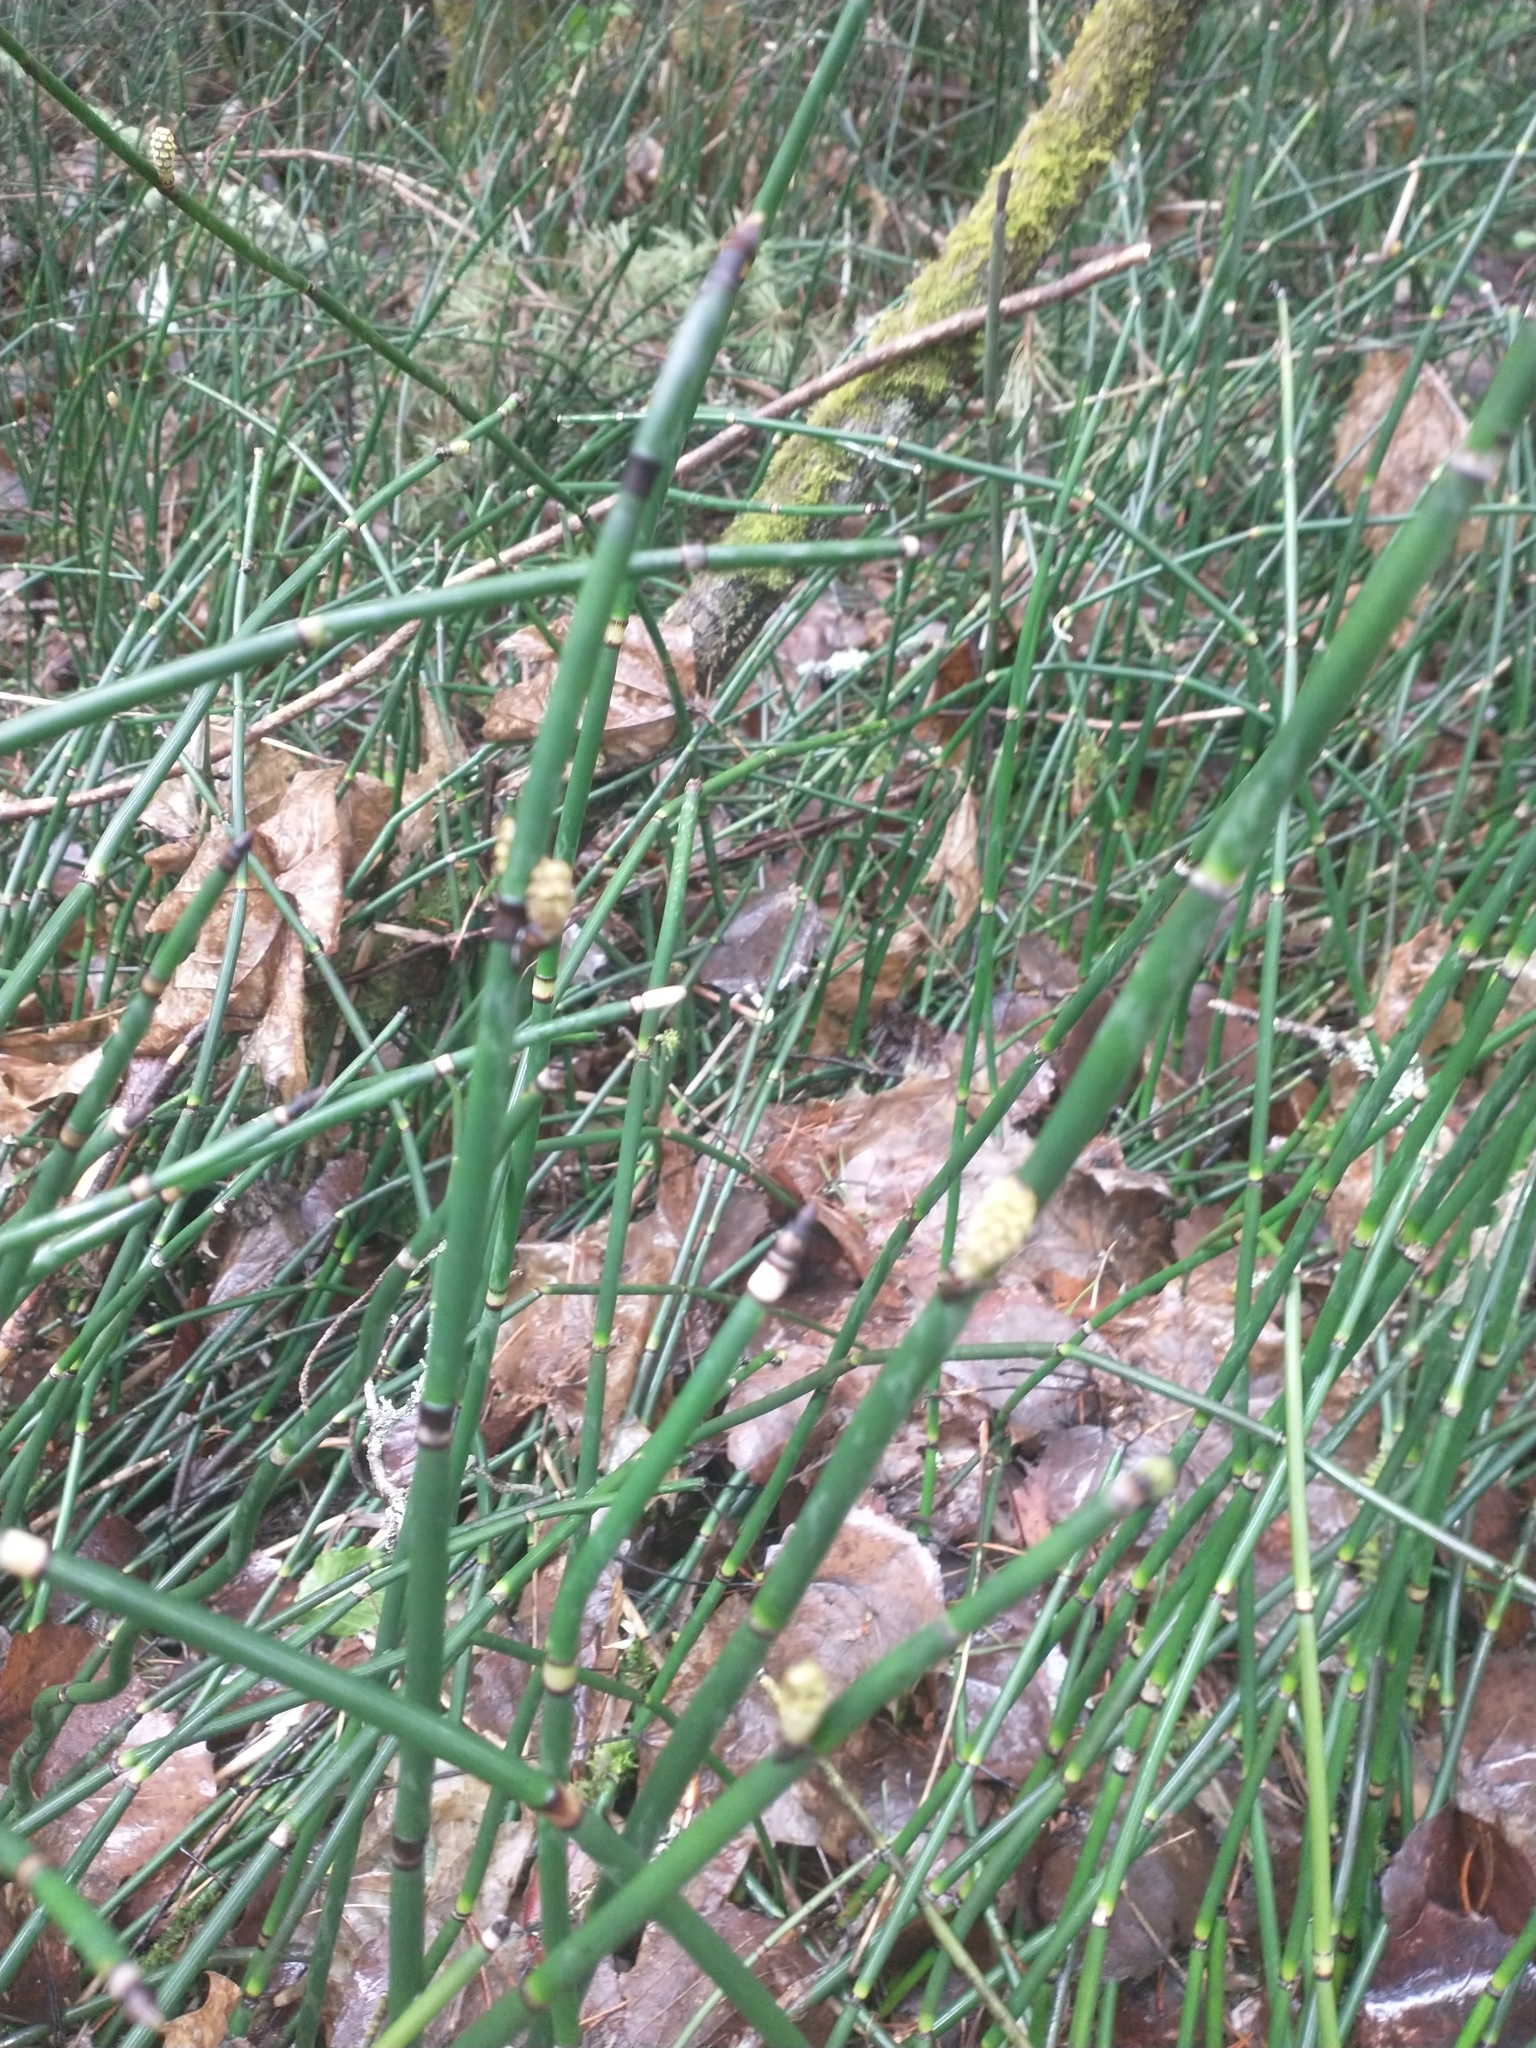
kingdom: Plantae
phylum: Tracheophyta
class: Polypodiopsida
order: Equisetales
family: Equisetaceae
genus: Equisetum
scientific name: Equisetum hyemale
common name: Rough horsetail
